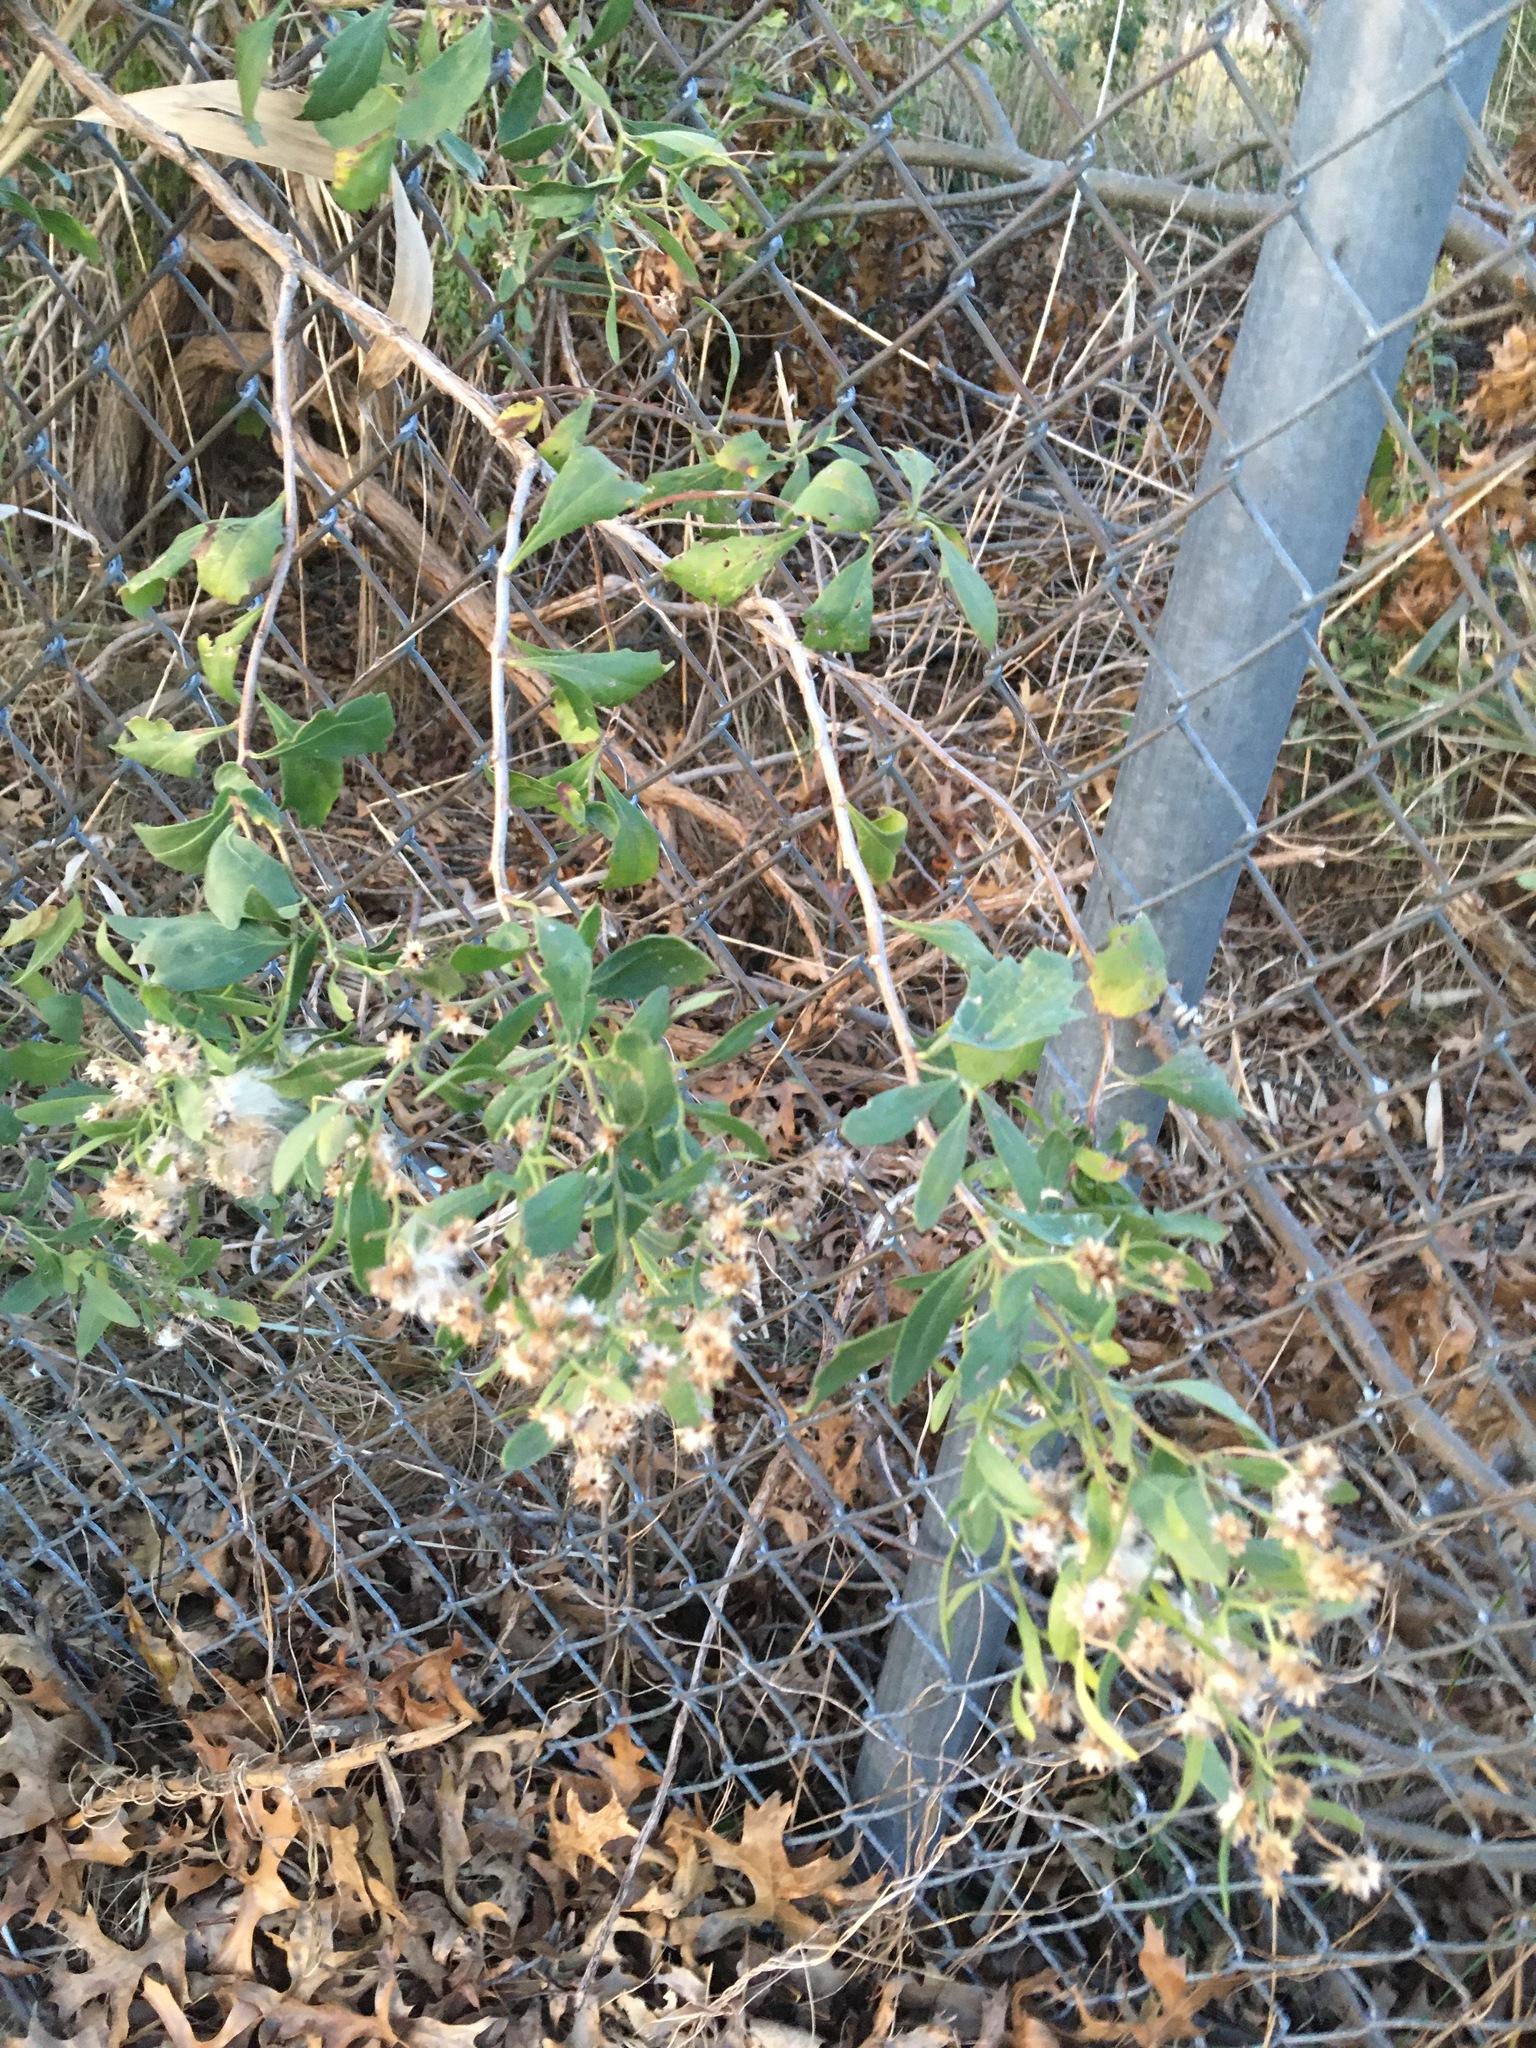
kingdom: Plantae
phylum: Tracheophyta
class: Magnoliopsida
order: Asterales
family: Asteraceae
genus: Baccharis
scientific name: Baccharis halimifolia
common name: Eastern baccharis
